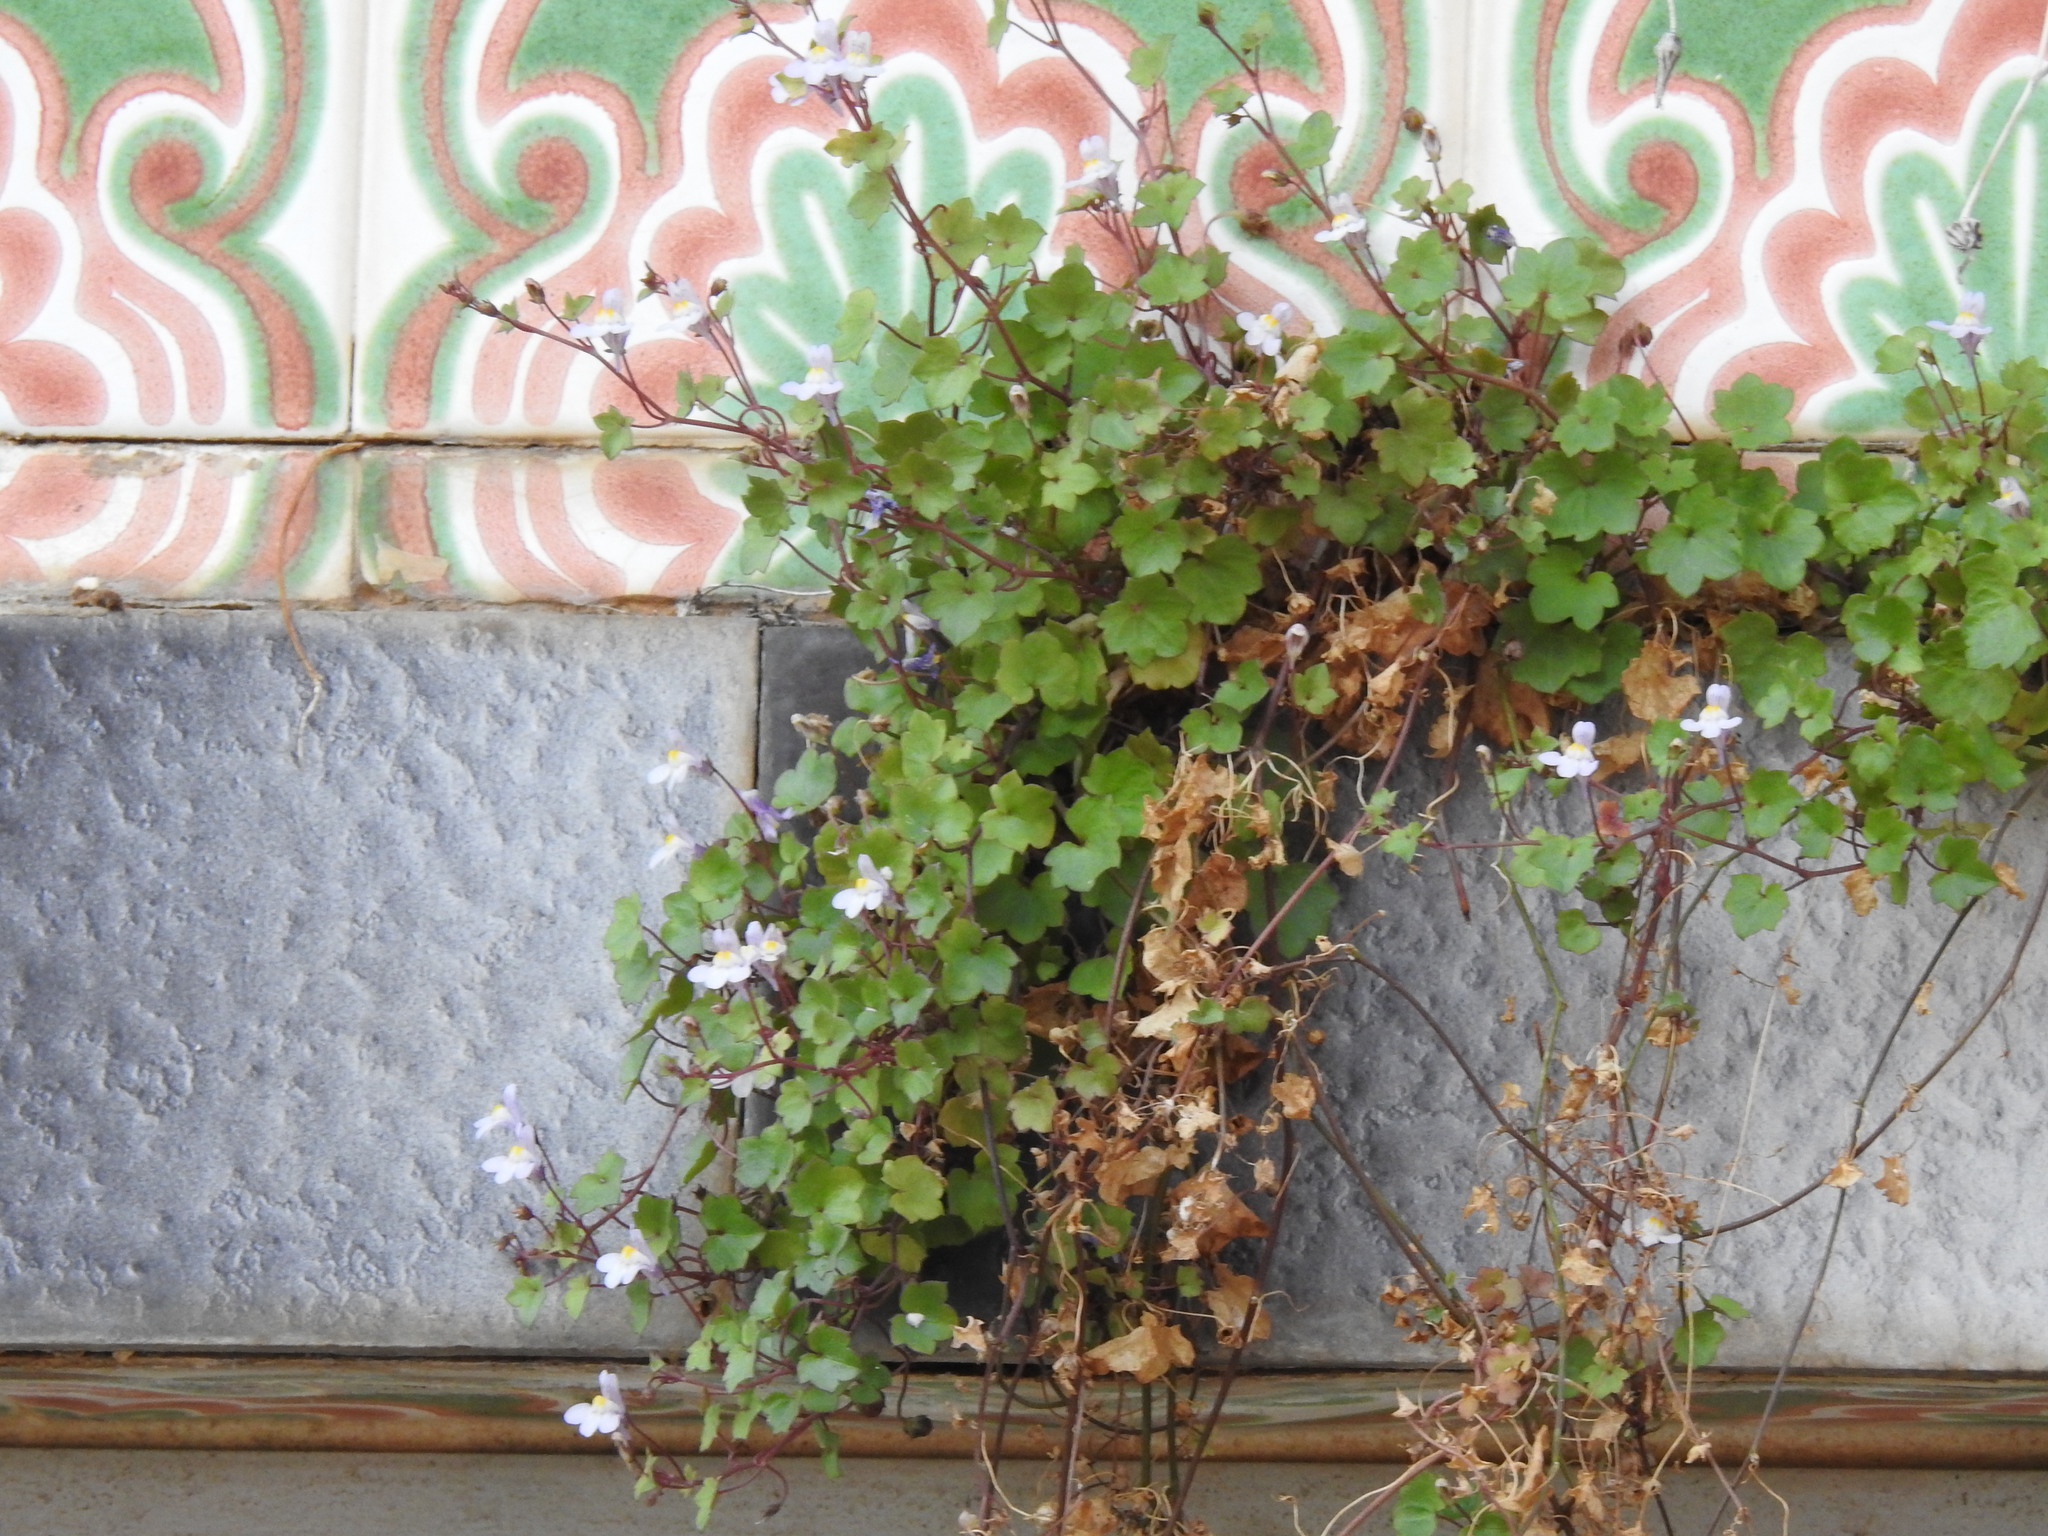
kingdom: Plantae
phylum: Tracheophyta
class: Magnoliopsida
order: Lamiales
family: Plantaginaceae
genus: Cymbalaria
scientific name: Cymbalaria muralis
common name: Ivy-leaved toadflax
